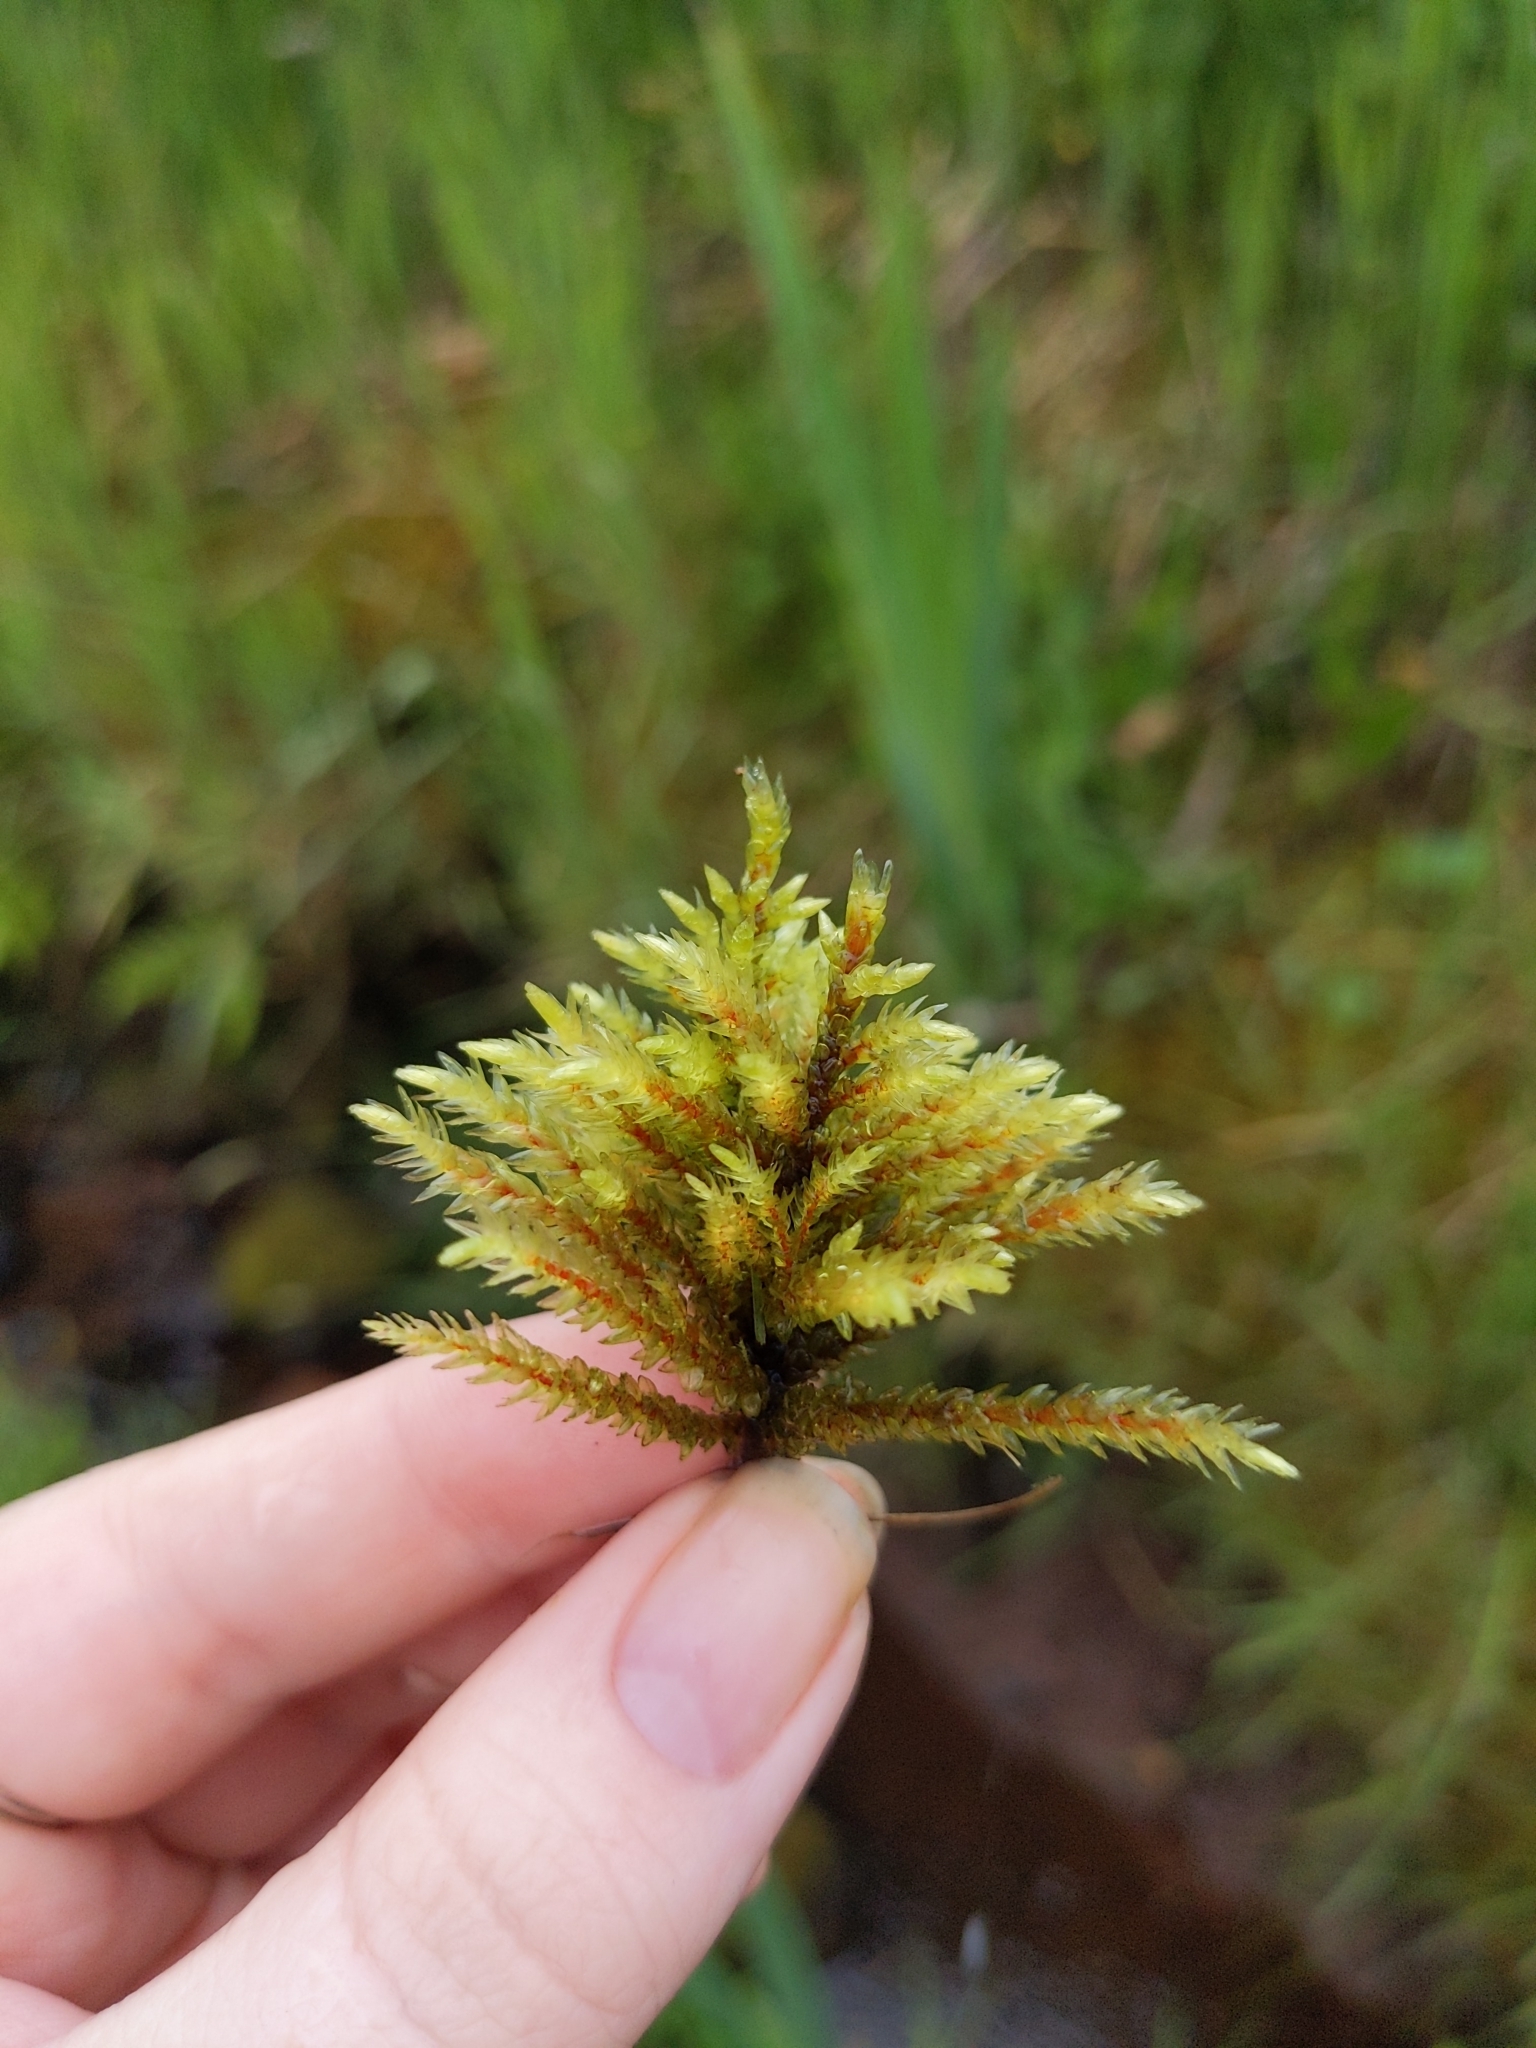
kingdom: Plantae
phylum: Bryophyta
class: Bryopsida
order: Hypnales
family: Climaciaceae
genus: Climacium
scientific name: Climacium dendroides
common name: Northern tree moss
